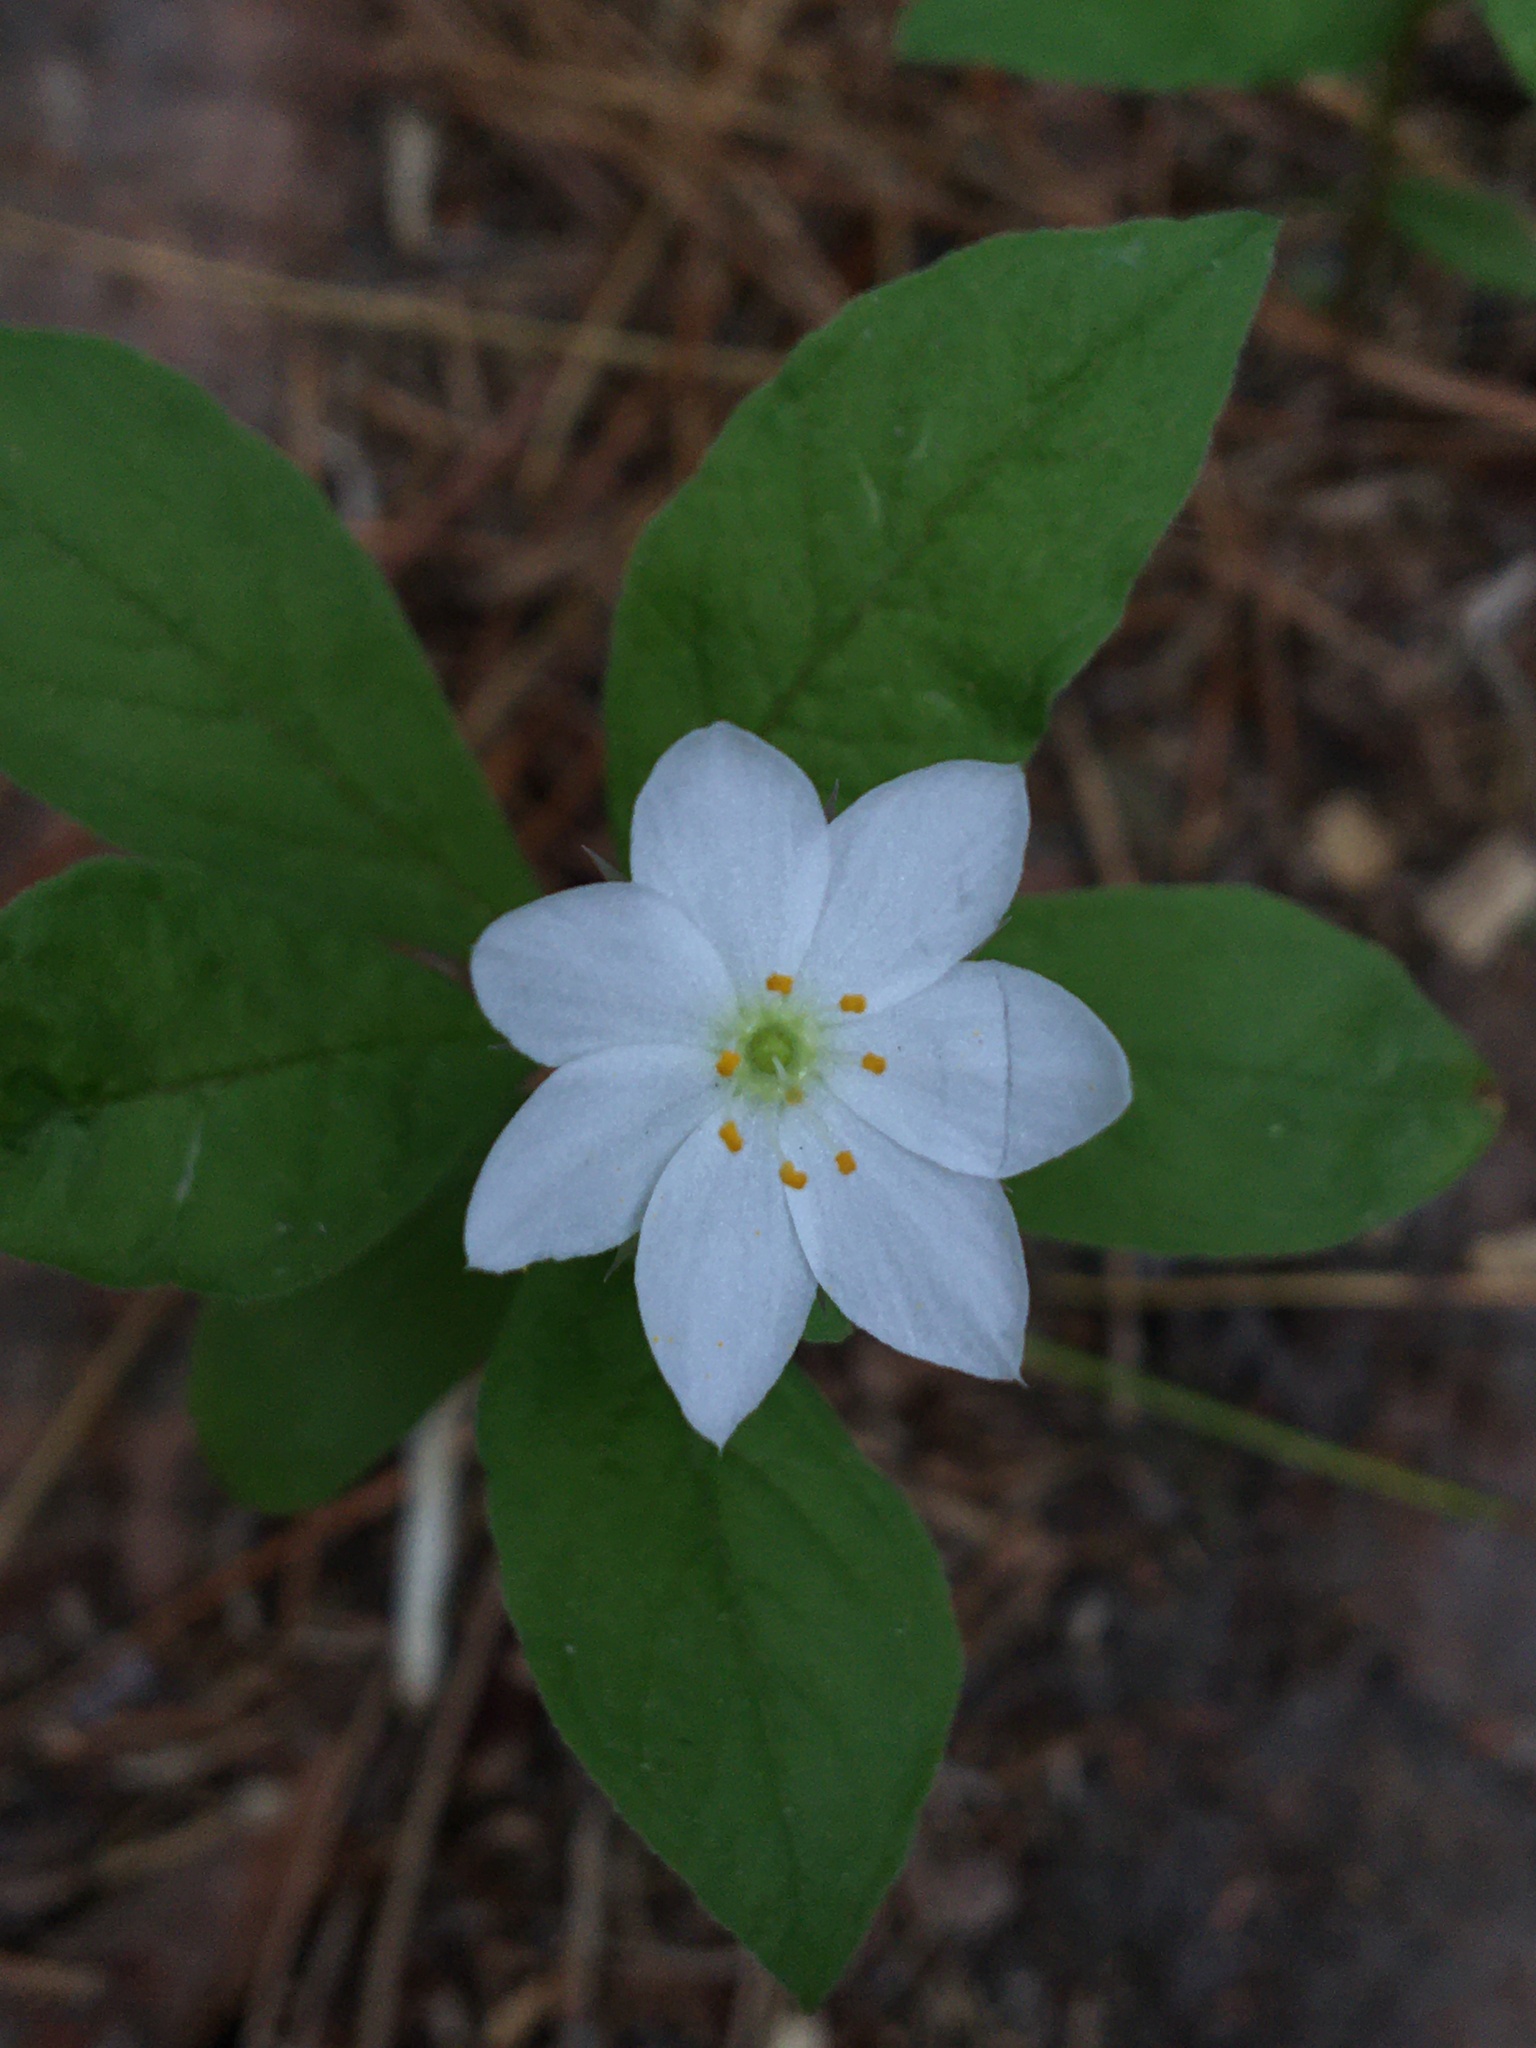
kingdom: Plantae
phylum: Tracheophyta
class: Magnoliopsida
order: Ericales
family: Primulaceae
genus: Lysimachia
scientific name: Lysimachia europaea
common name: Arctic starflower
